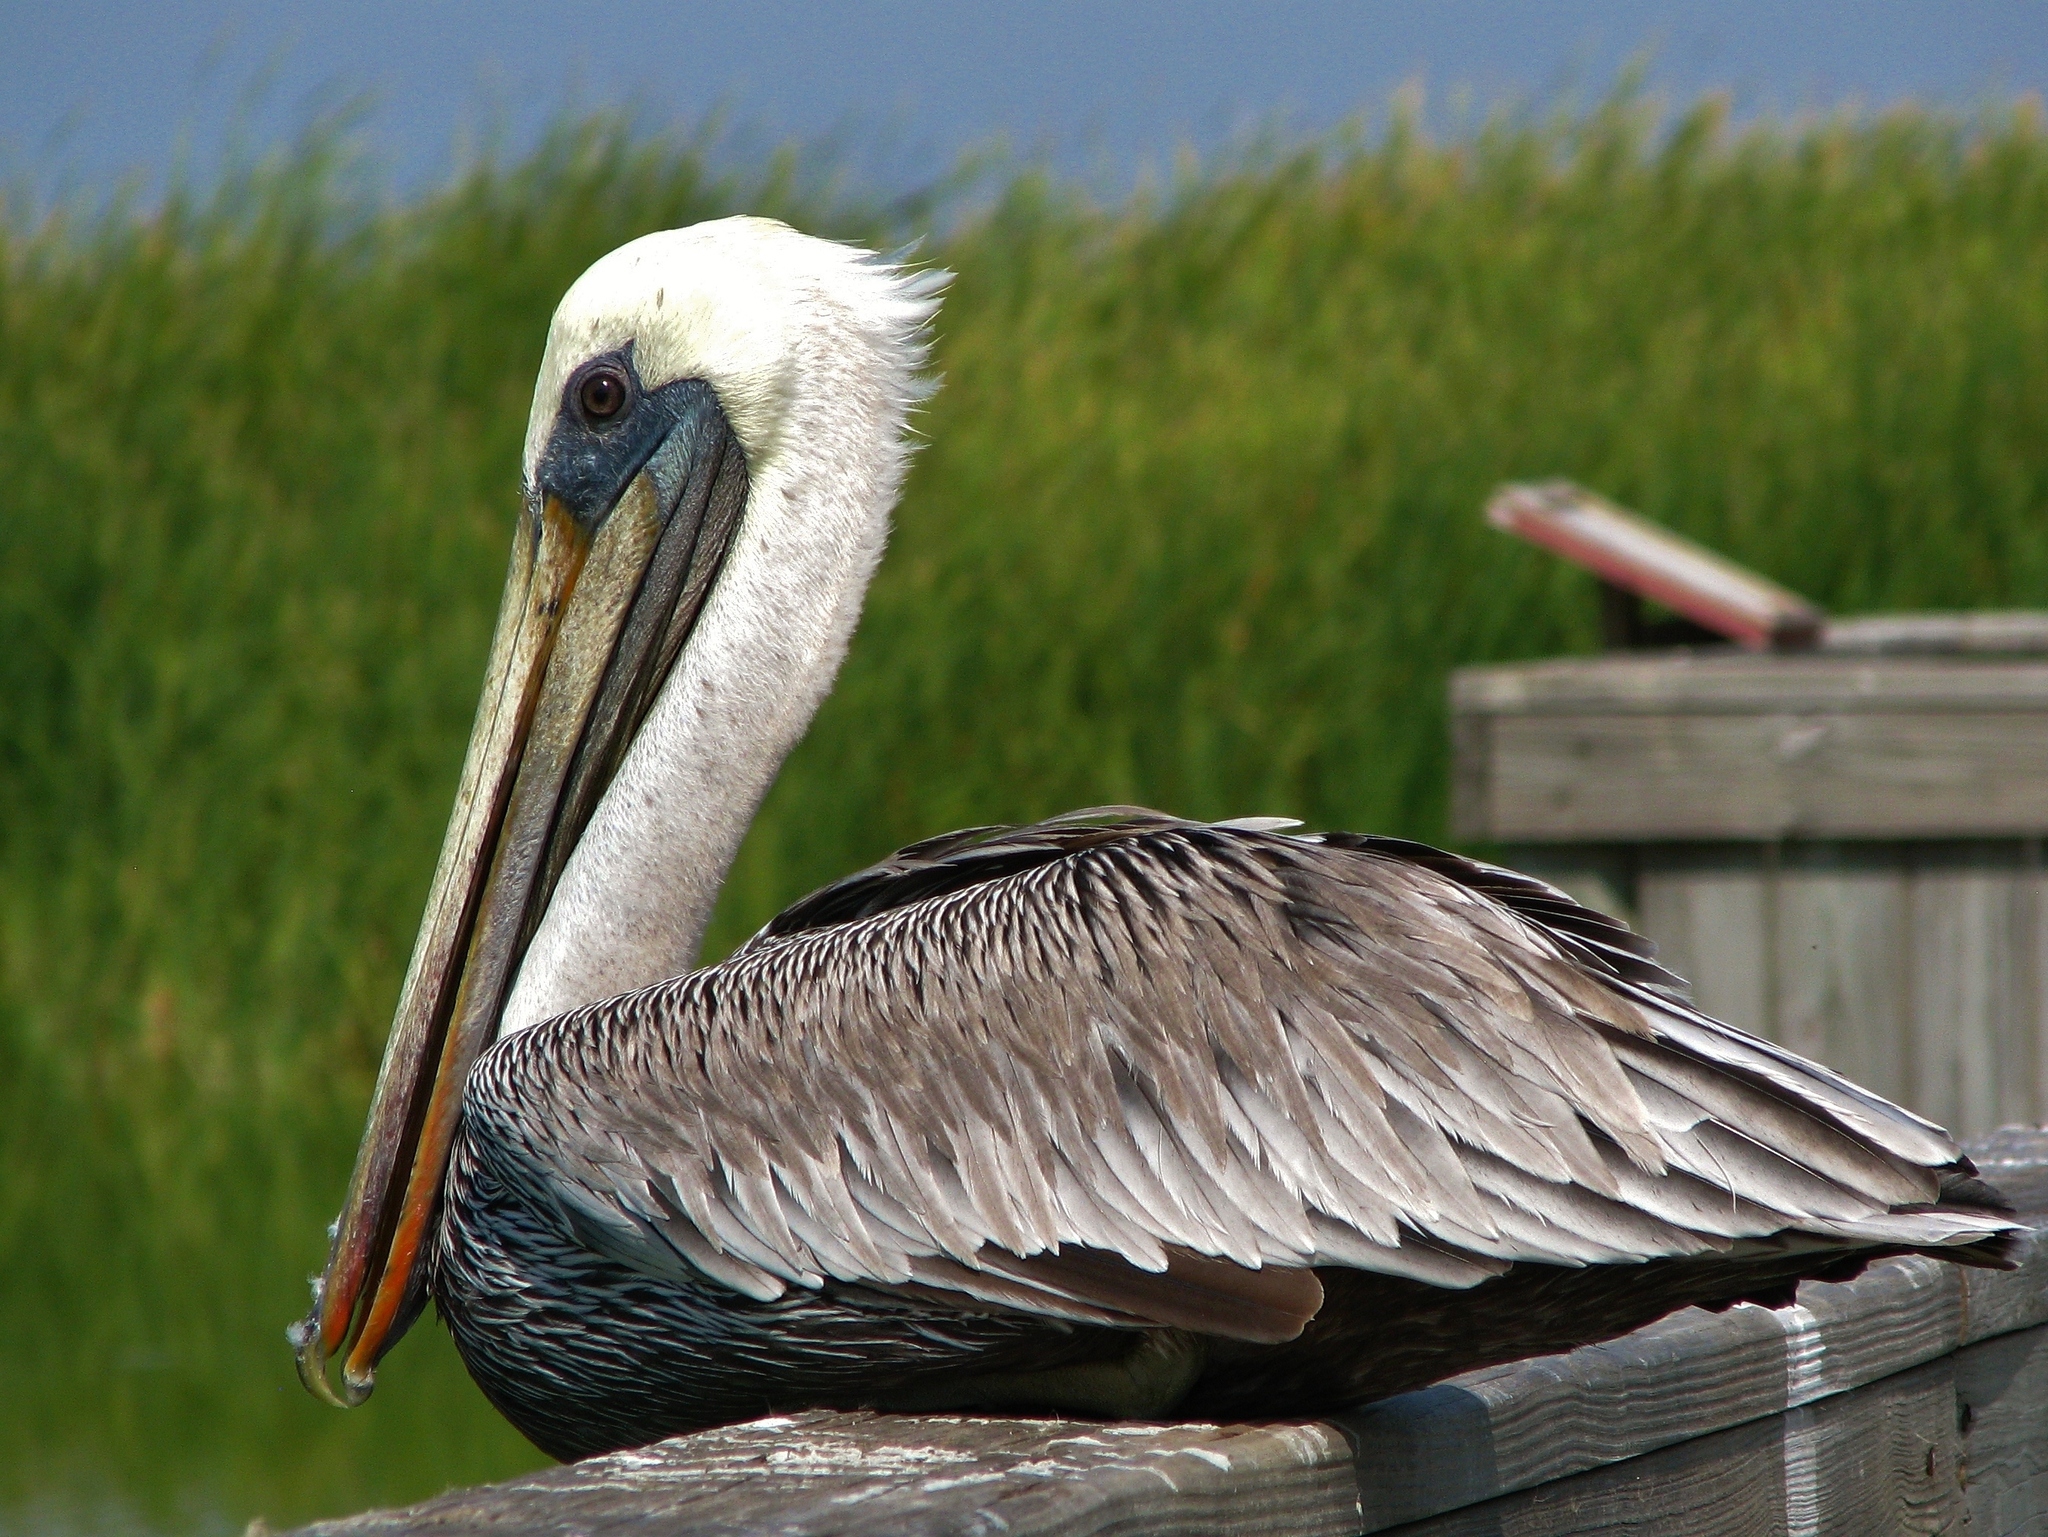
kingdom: Animalia
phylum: Chordata
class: Aves
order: Pelecaniformes
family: Pelecanidae
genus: Pelecanus
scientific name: Pelecanus occidentalis
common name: Brown pelican
